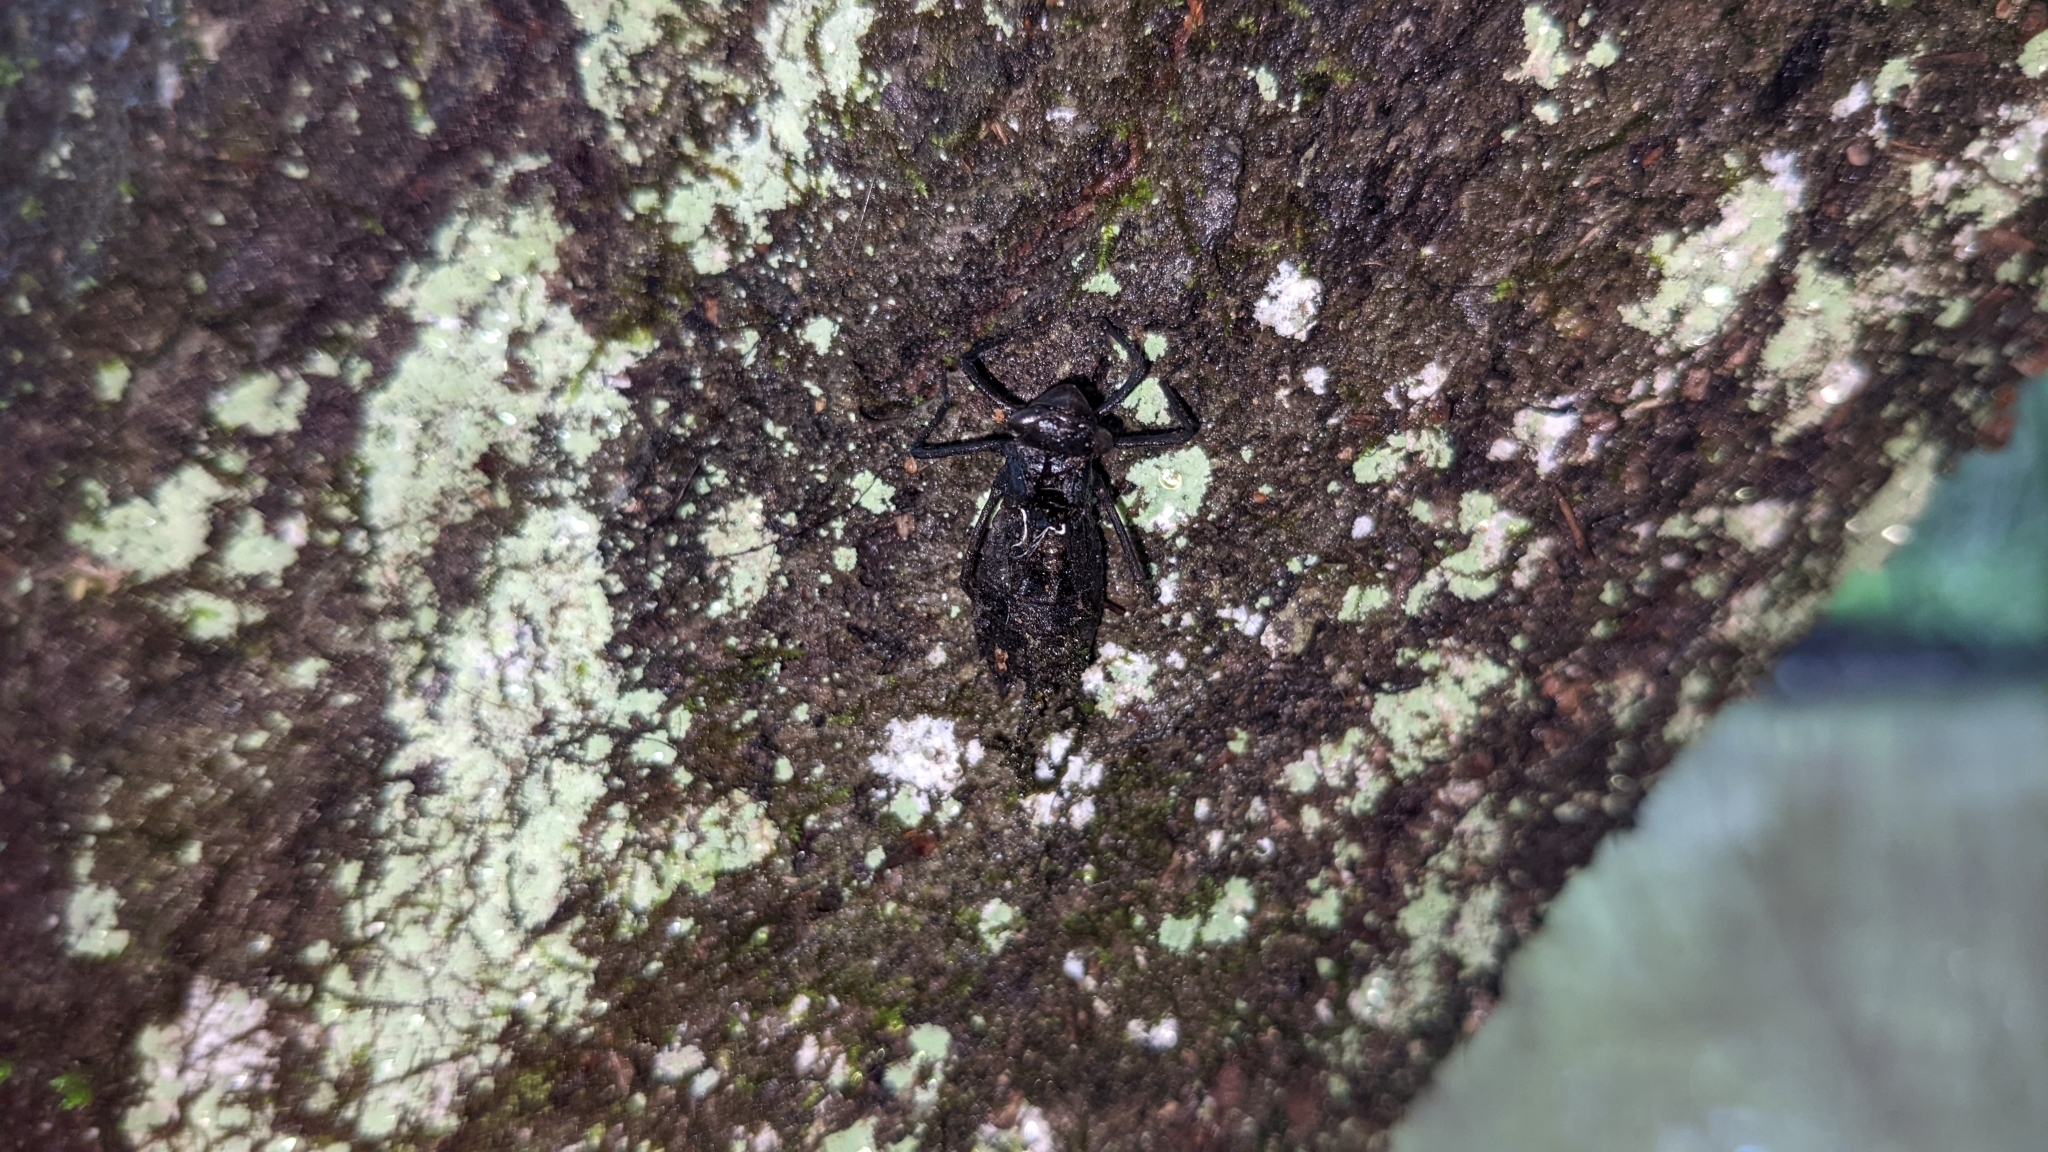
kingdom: Animalia
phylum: Arthropoda
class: Insecta
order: Odonata
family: Libellulidae
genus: Pachydiplax
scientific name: Pachydiplax longipennis
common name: Blue dasher
